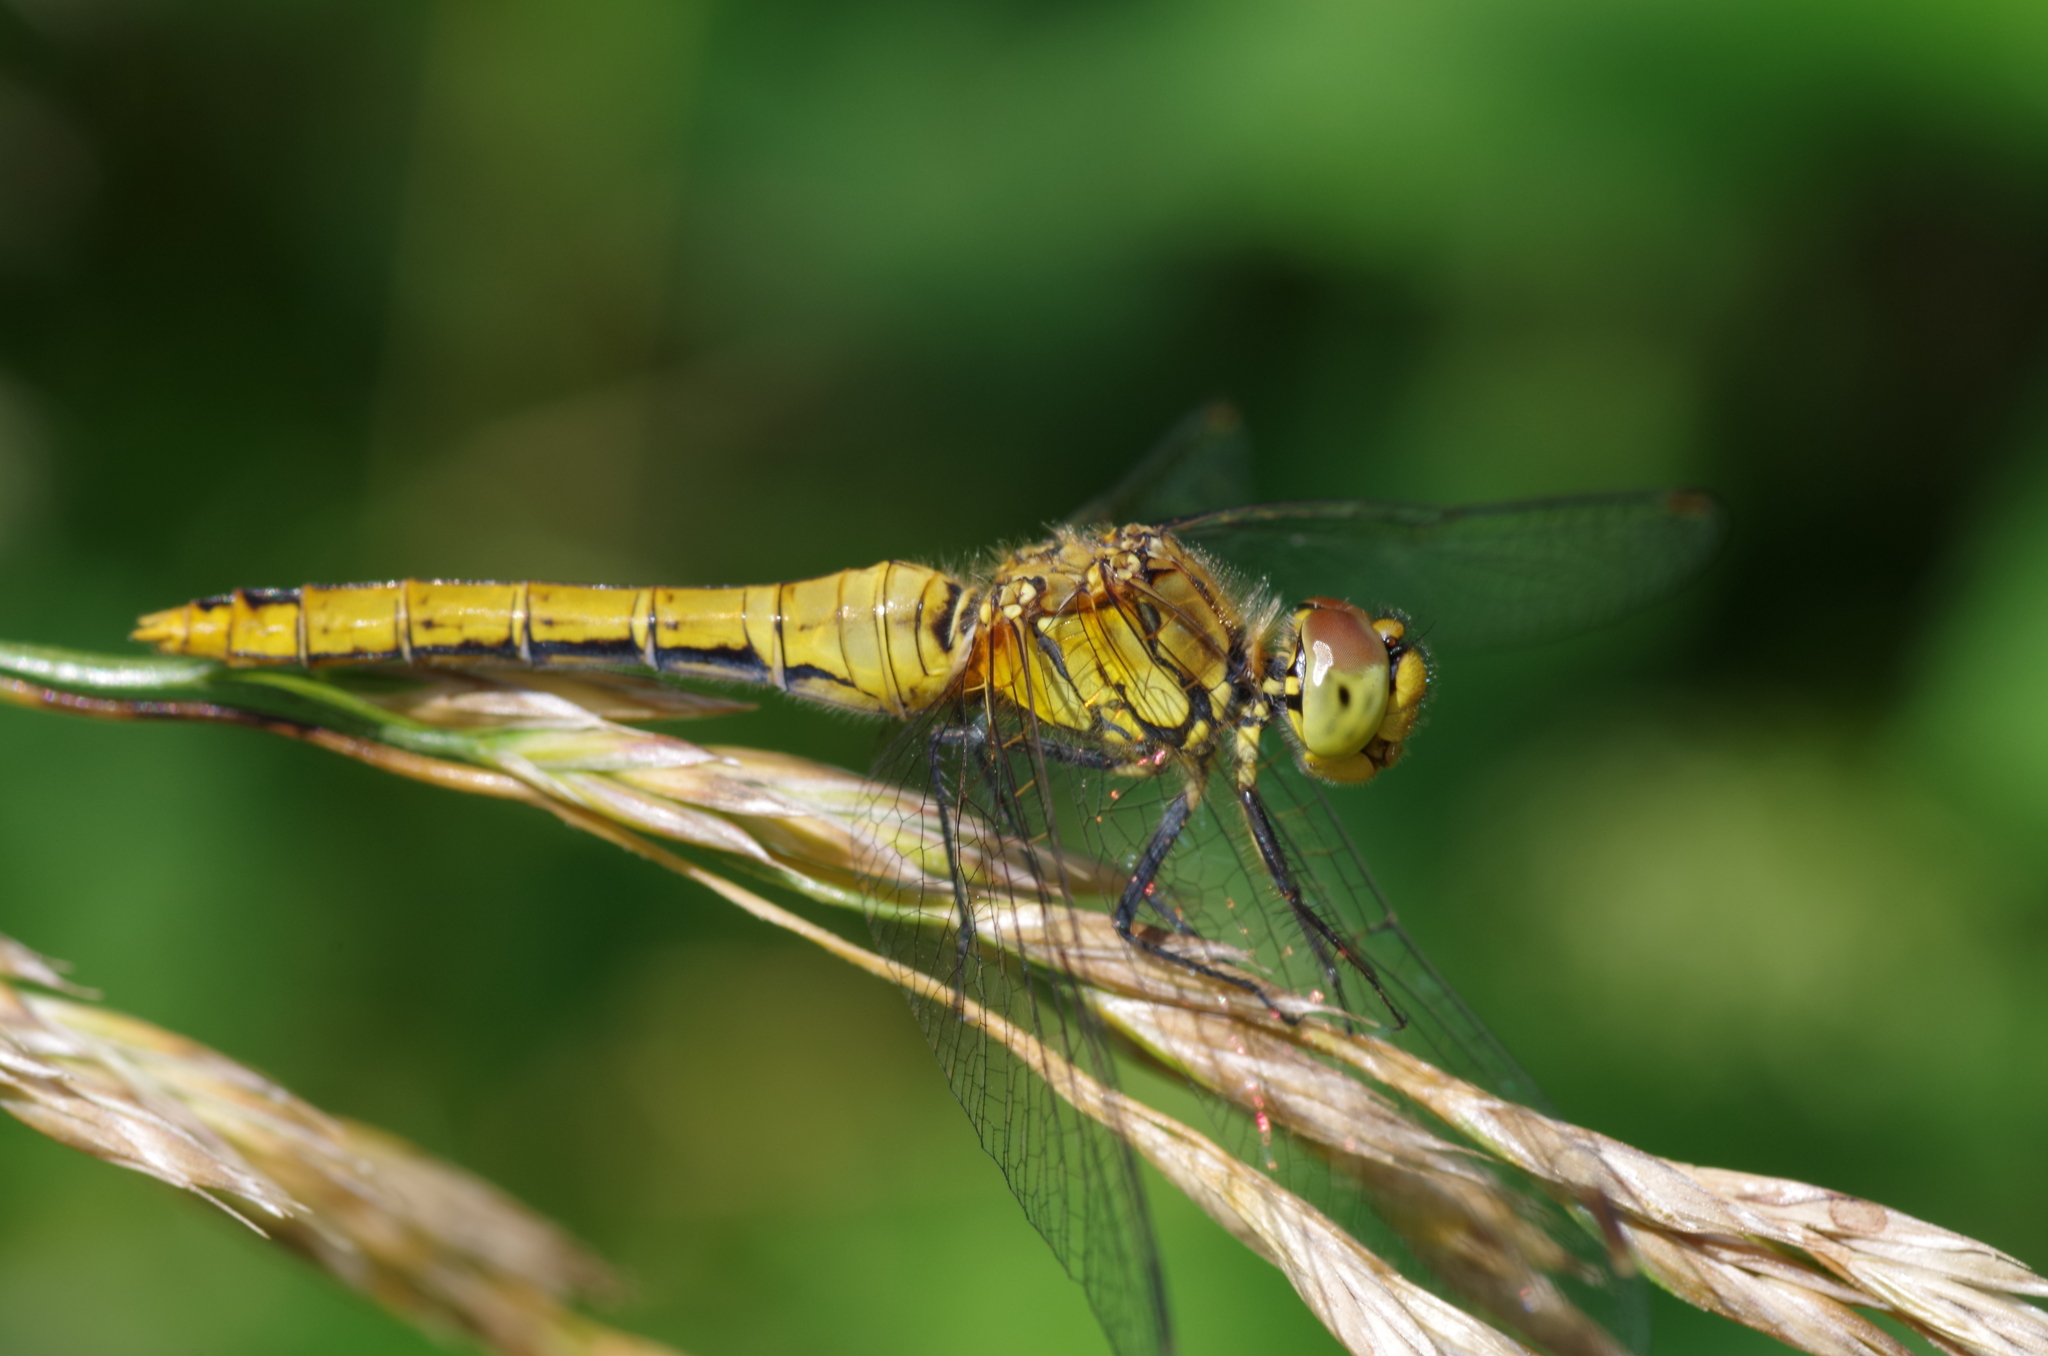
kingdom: Animalia
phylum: Arthropoda
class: Insecta
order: Odonata
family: Libellulidae
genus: Sympetrum
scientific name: Sympetrum sanguineum
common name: Ruddy darter
